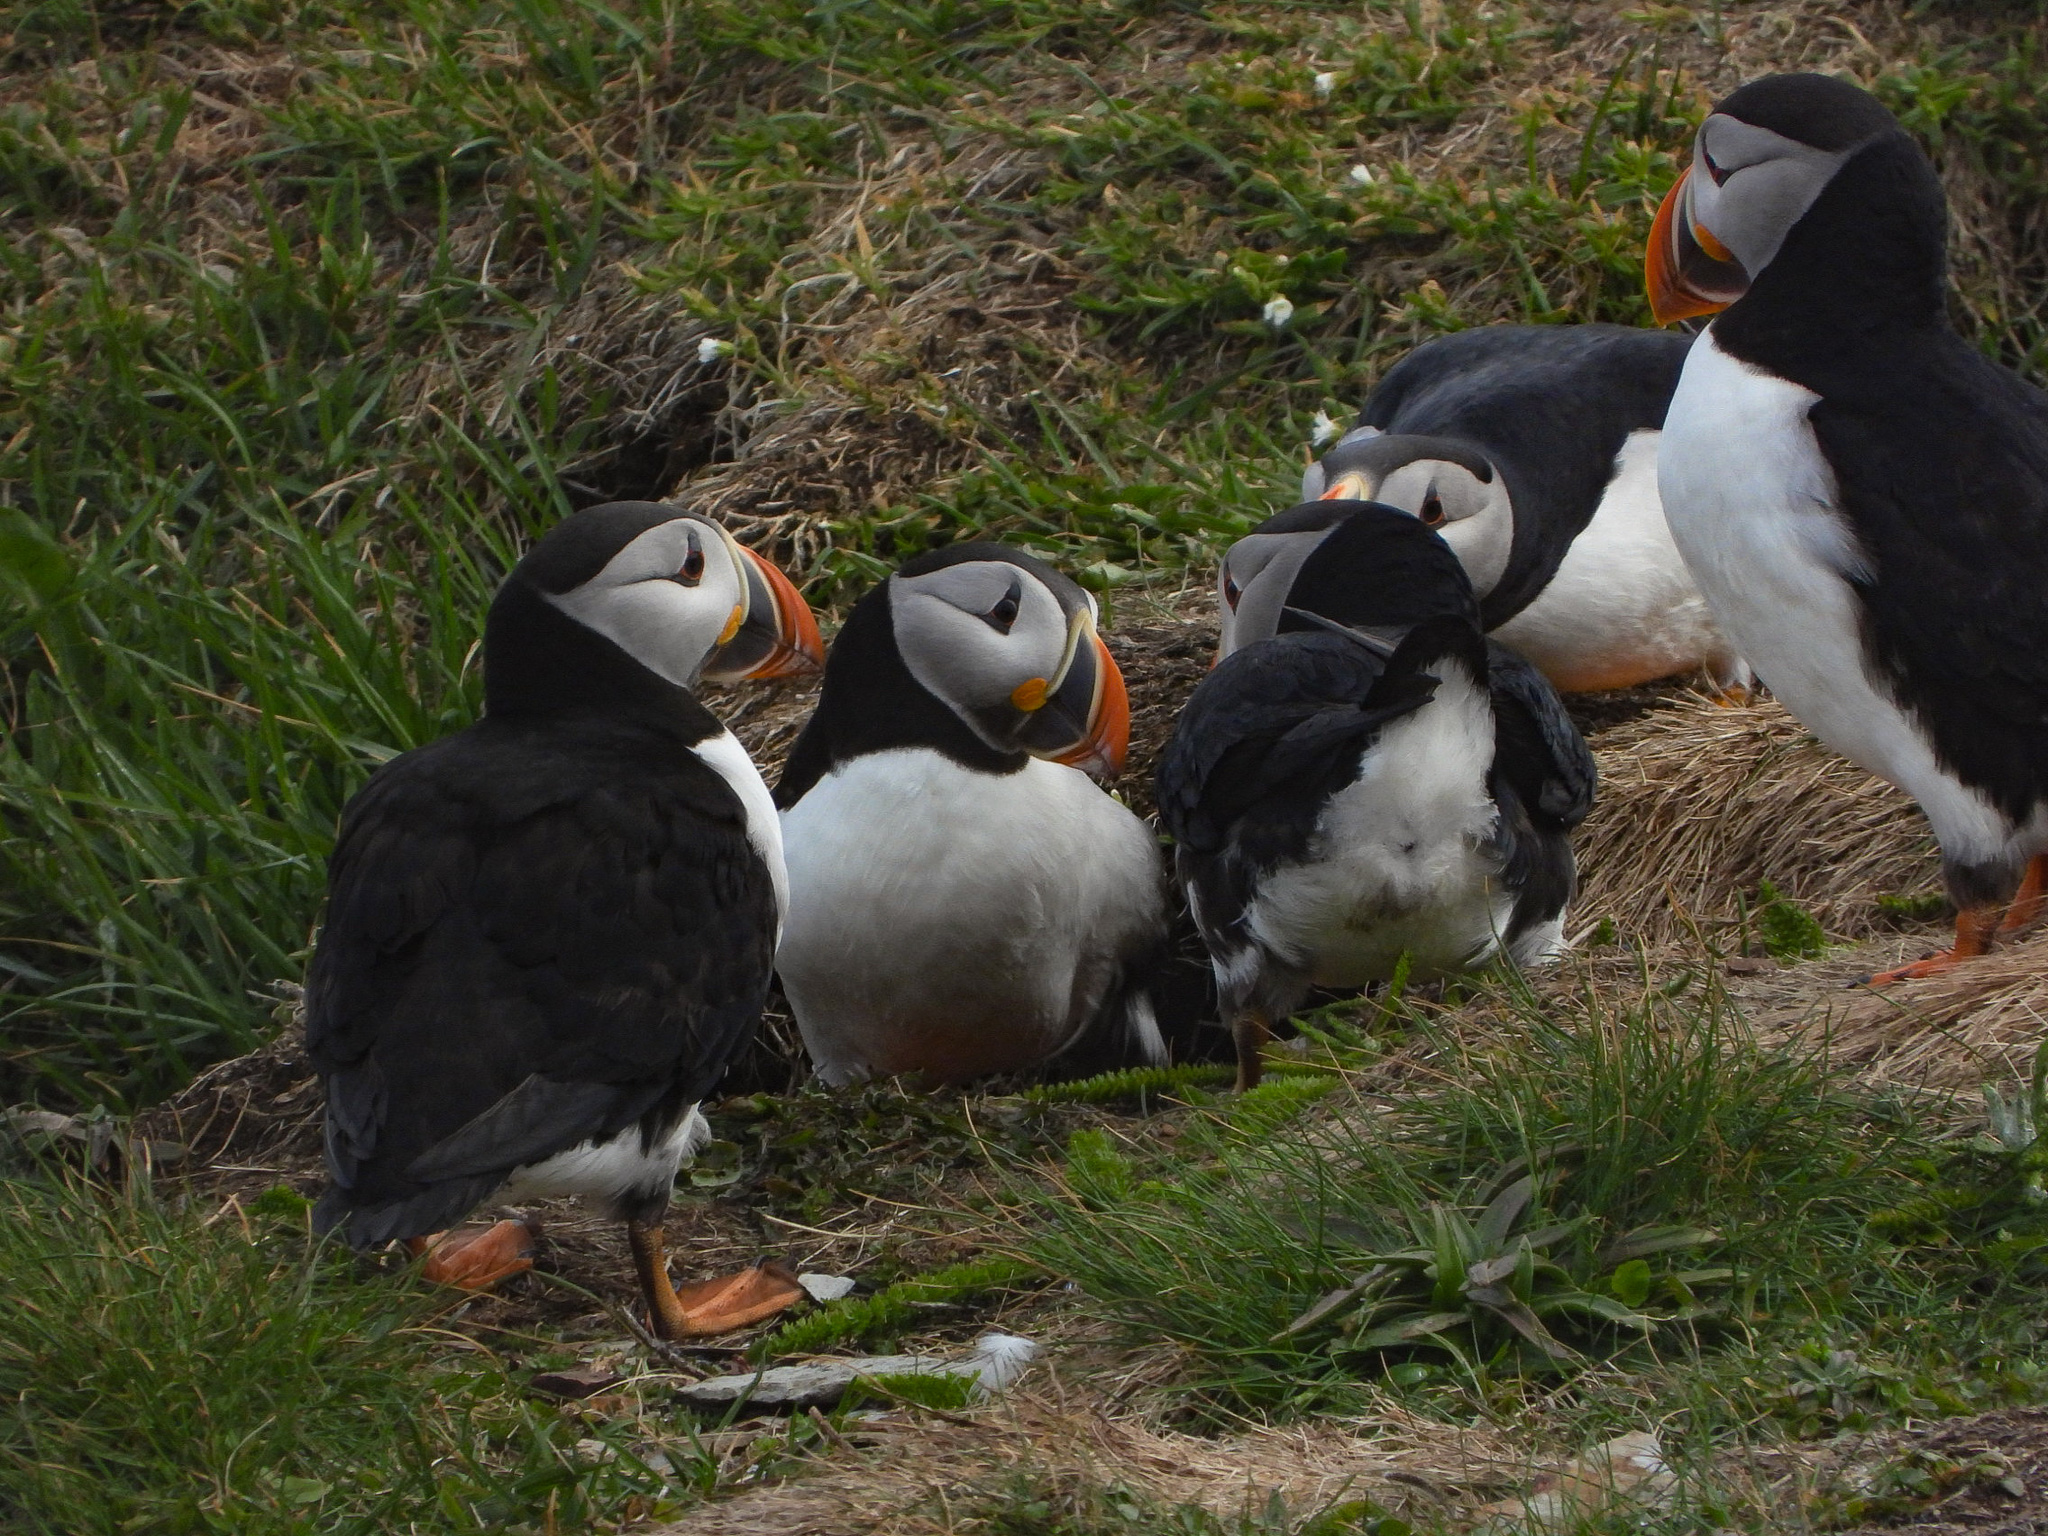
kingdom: Animalia
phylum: Chordata
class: Aves
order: Charadriiformes
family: Alcidae
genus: Fratercula
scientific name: Fratercula arctica
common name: Atlantic puffin
